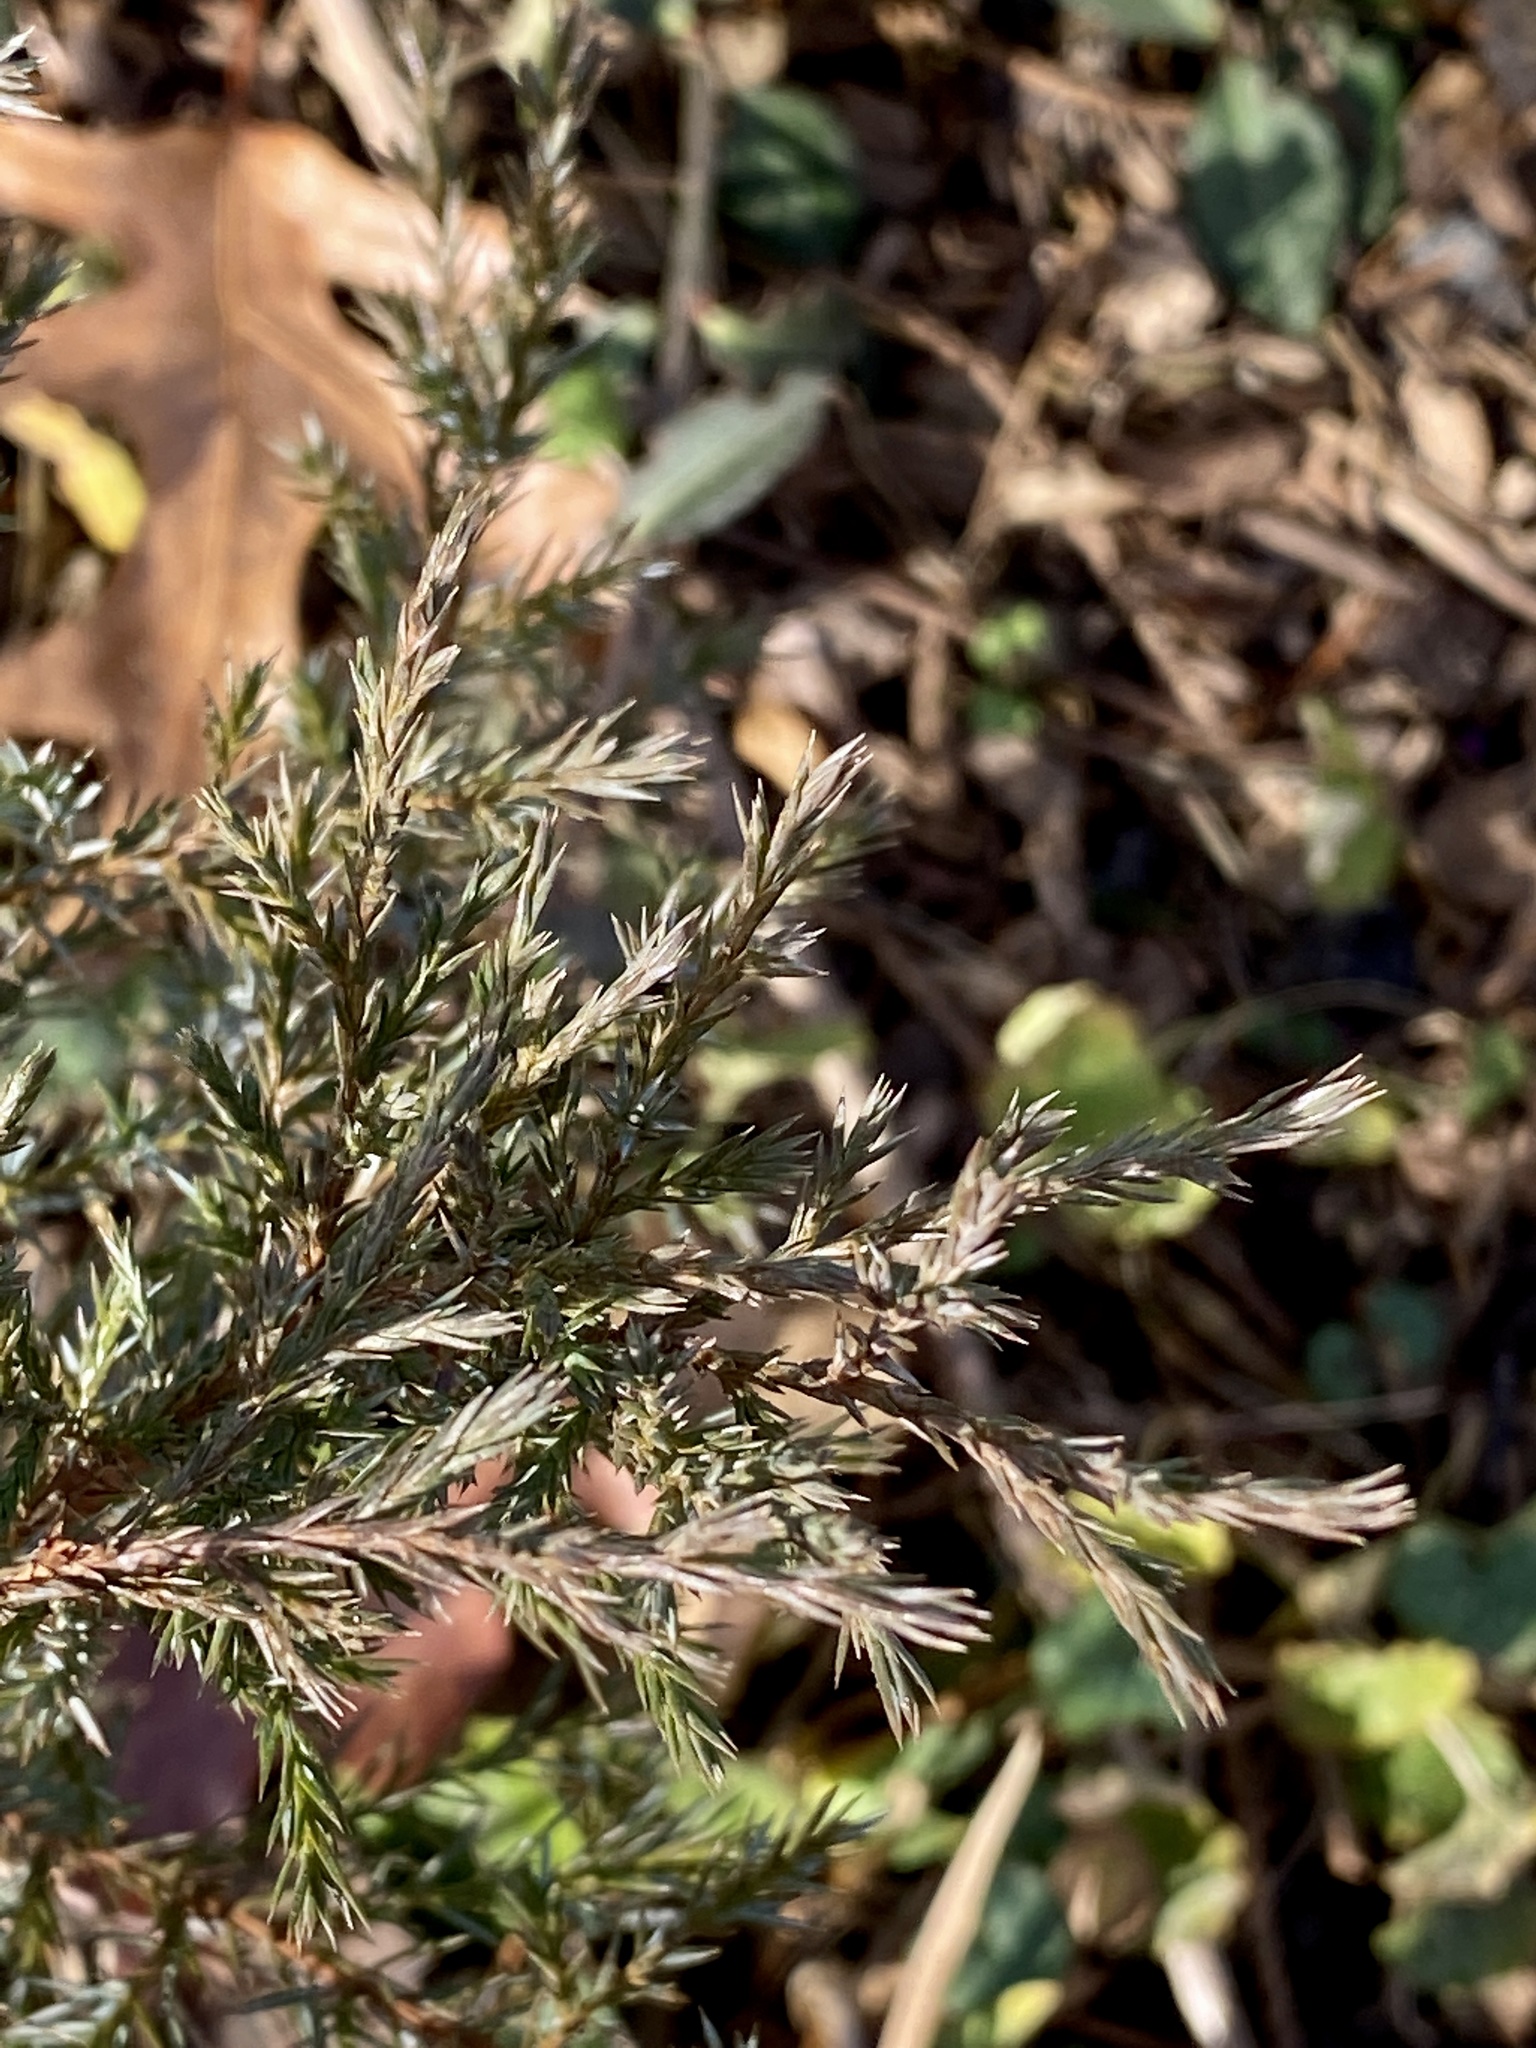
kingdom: Plantae
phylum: Tracheophyta
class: Pinopsida
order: Pinales
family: Cupressaceae
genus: Juniperus
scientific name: Juniperus virginiana
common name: Red juniper
